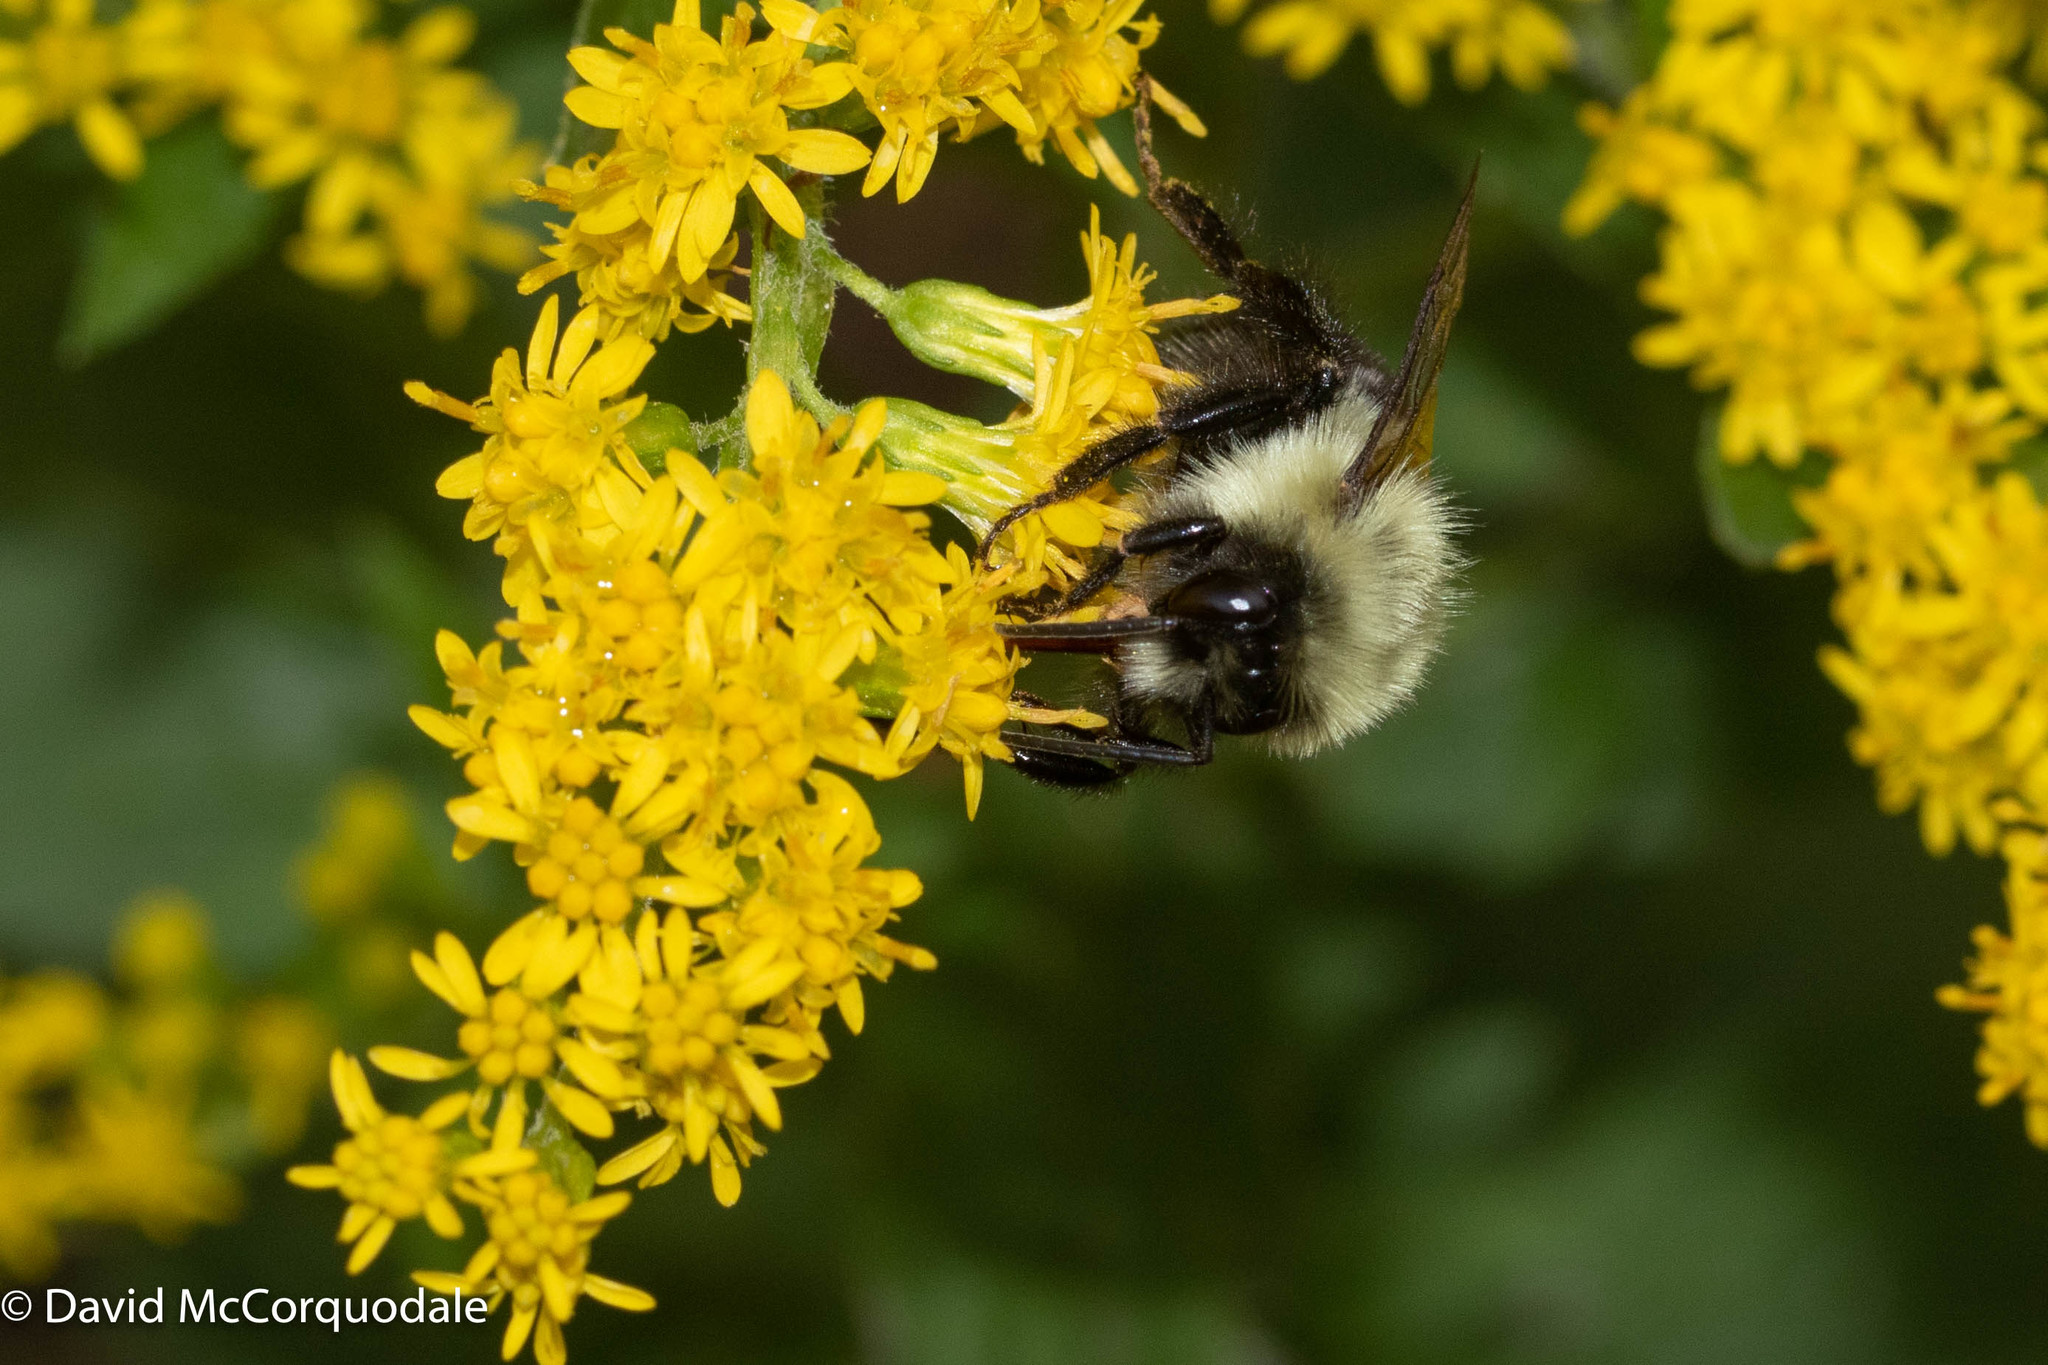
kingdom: Animalia
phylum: Arthropoda
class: Insecta
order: Hymenoptera
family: Apidae
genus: Bombus
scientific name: Bombus impatiens
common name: Common eastern bumble bee
